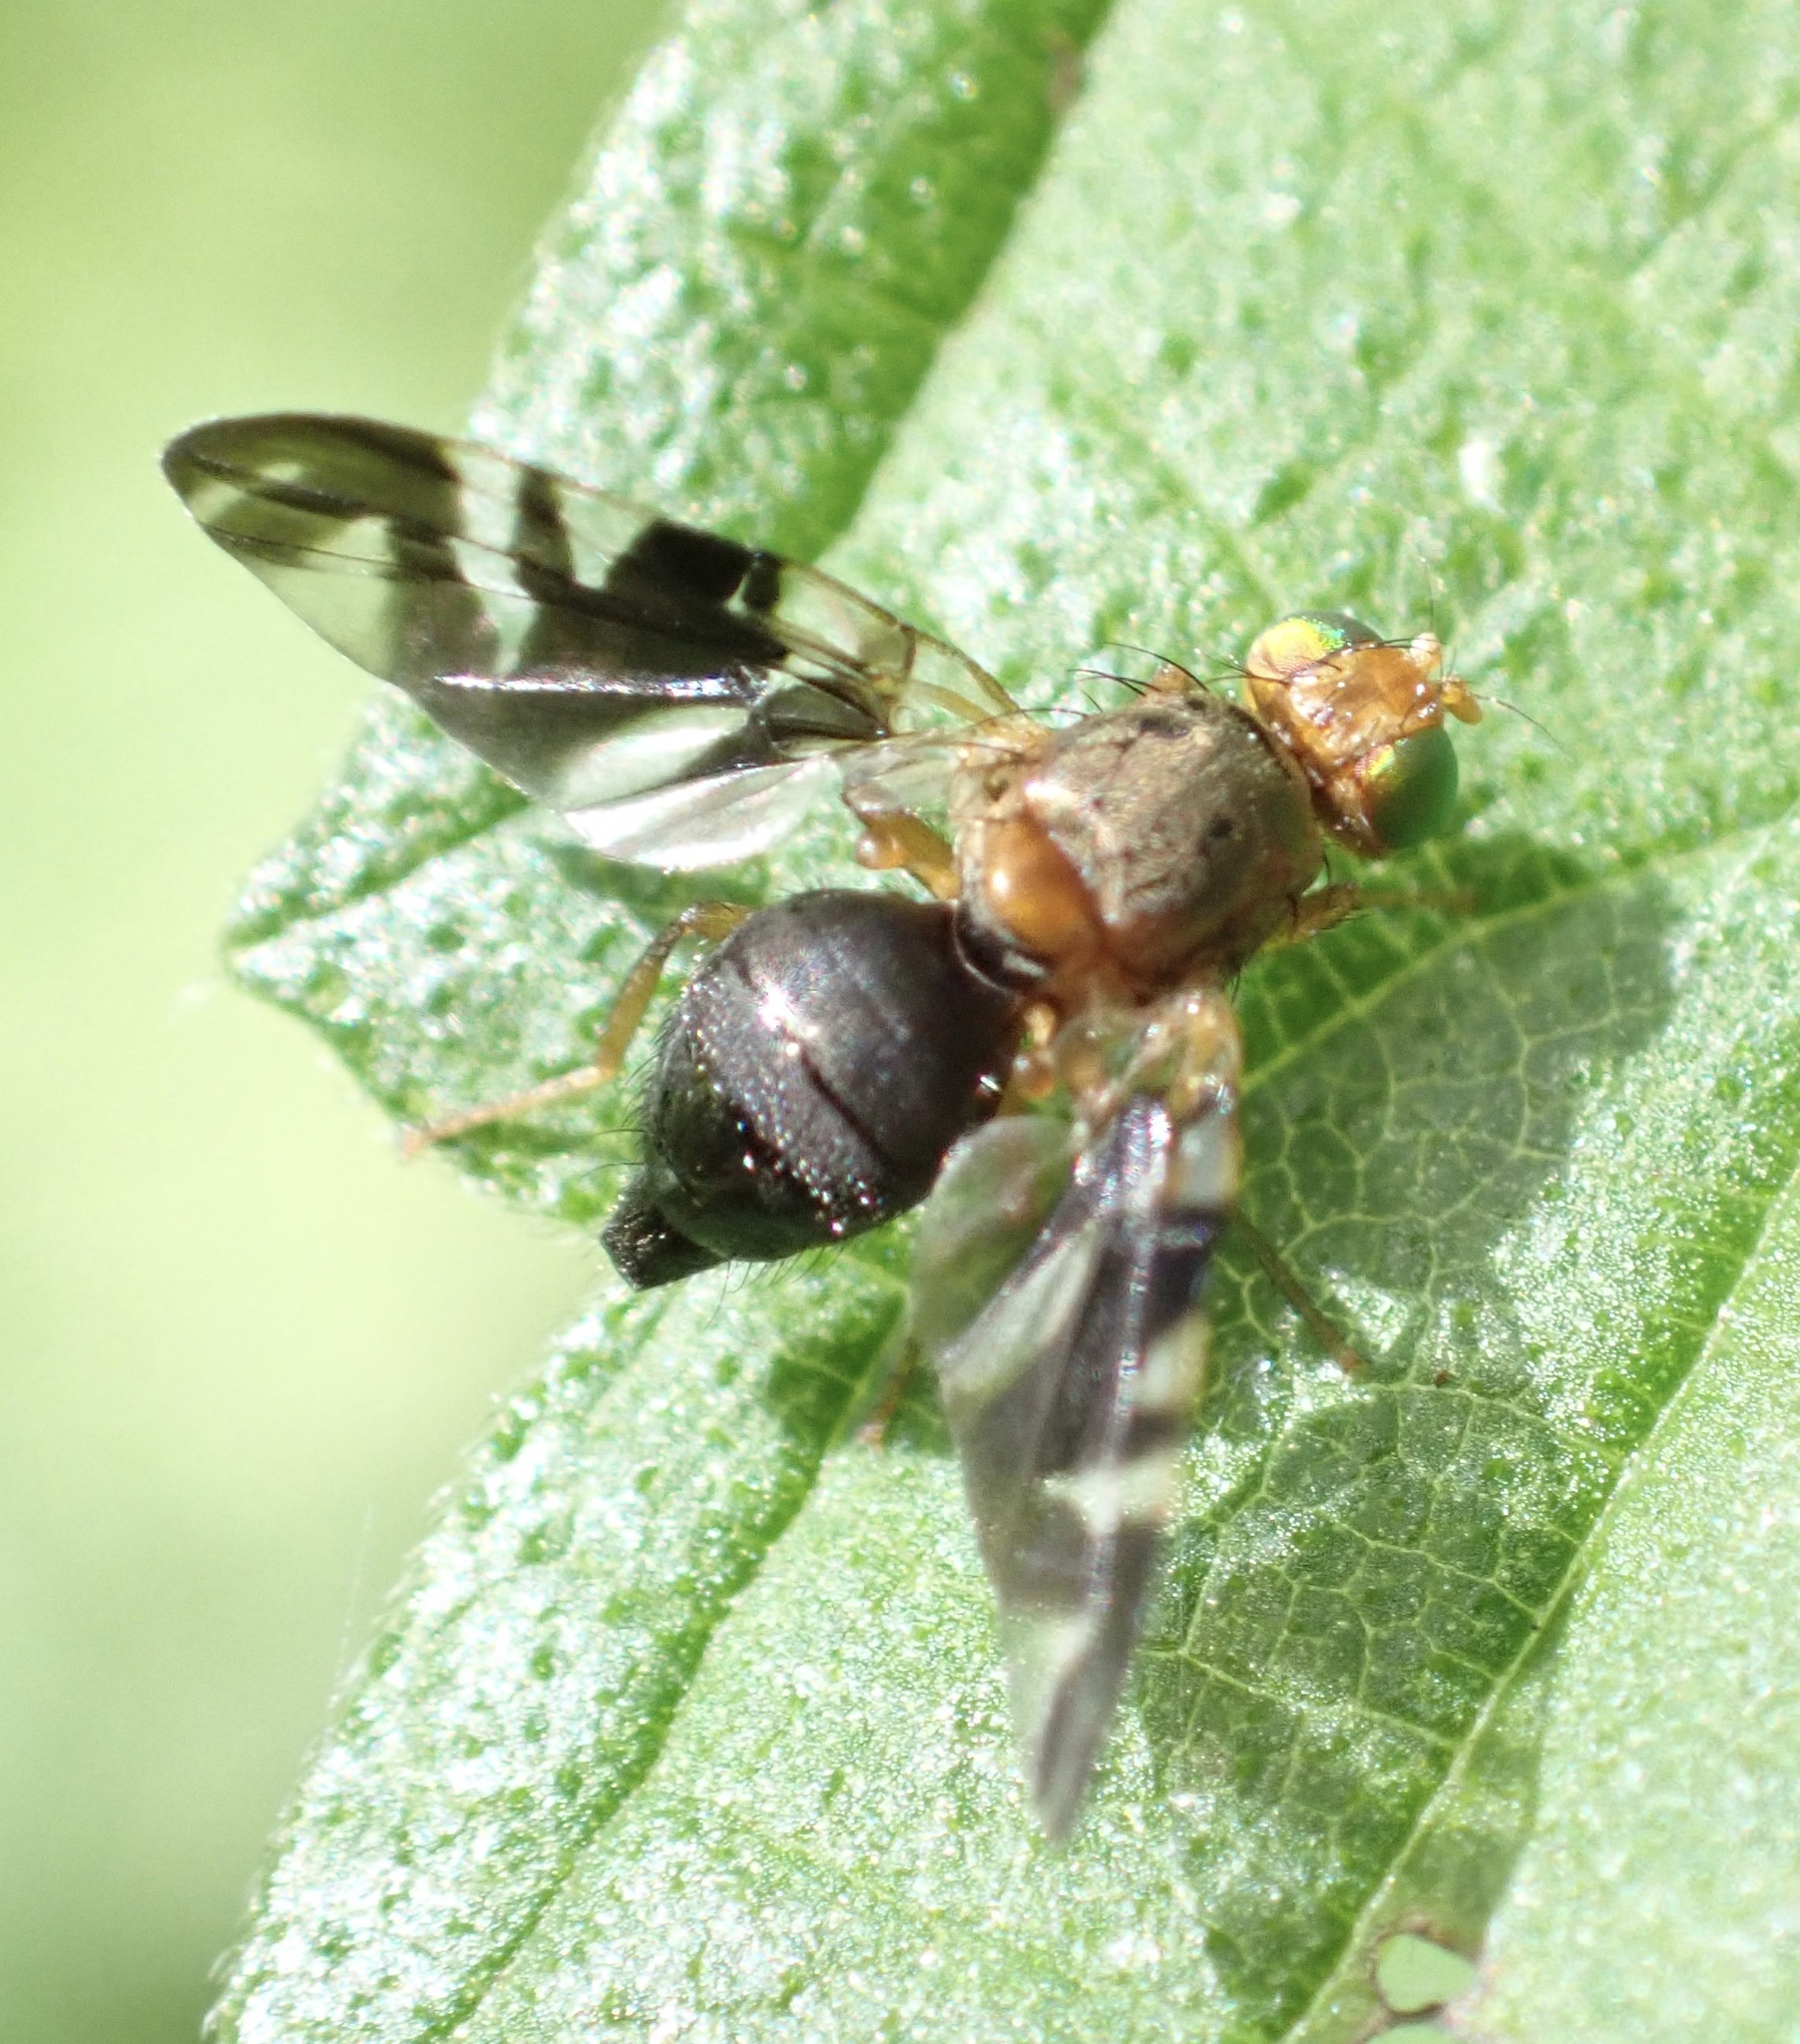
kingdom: Animalia
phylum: Arthropoda
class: Insecta
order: Diptera
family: Tephritidae
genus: Philophylla
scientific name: Philophylla caesio
